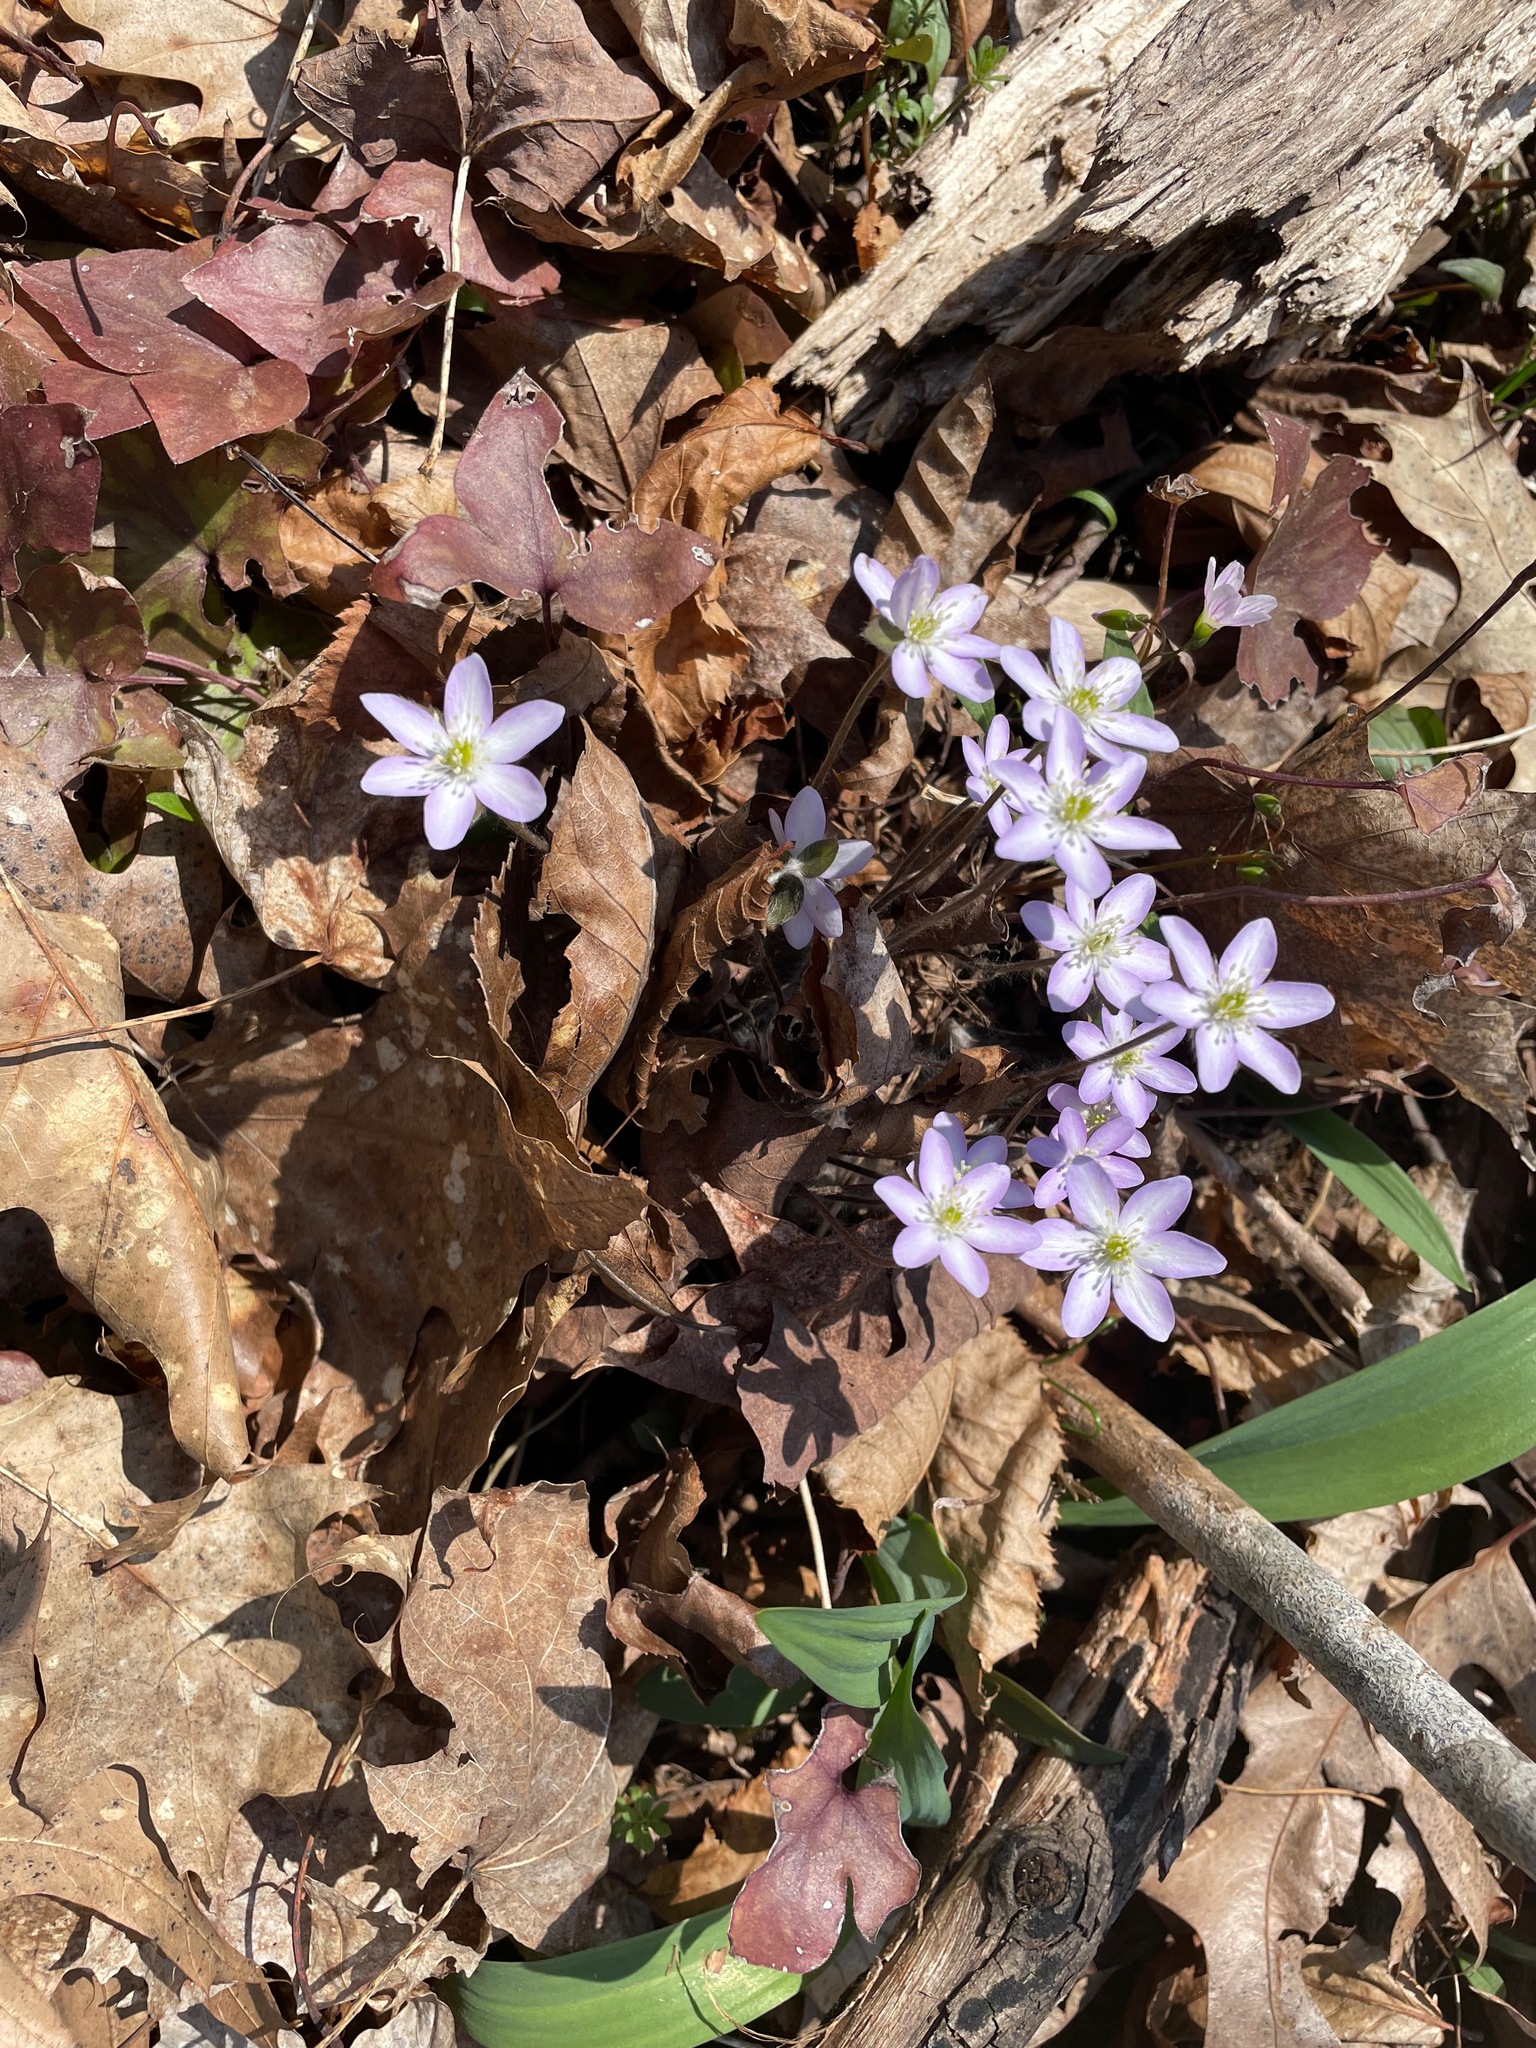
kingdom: Plantae
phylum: Tracheophyta
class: Magnoliopsida
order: Ranunculales
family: Ranunculaceae
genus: Hepatica
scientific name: Hepatica acutiloba
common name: Sharp-lobed hepatica
